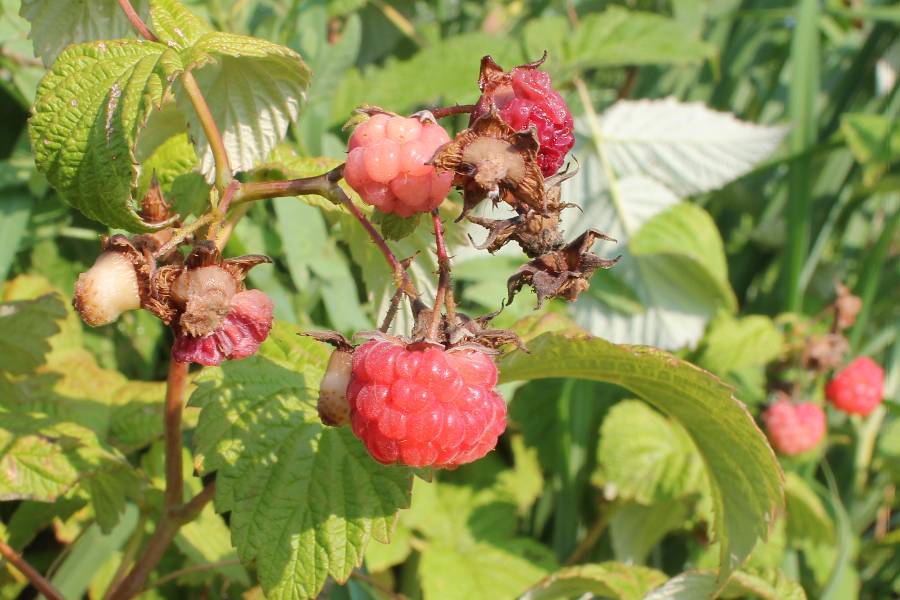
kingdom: Plantae
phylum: Tracheophyta
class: Magnoliopsida
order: Rosales
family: Rosaceae
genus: Rubus
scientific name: Rubus idaeus
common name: Raspberry
